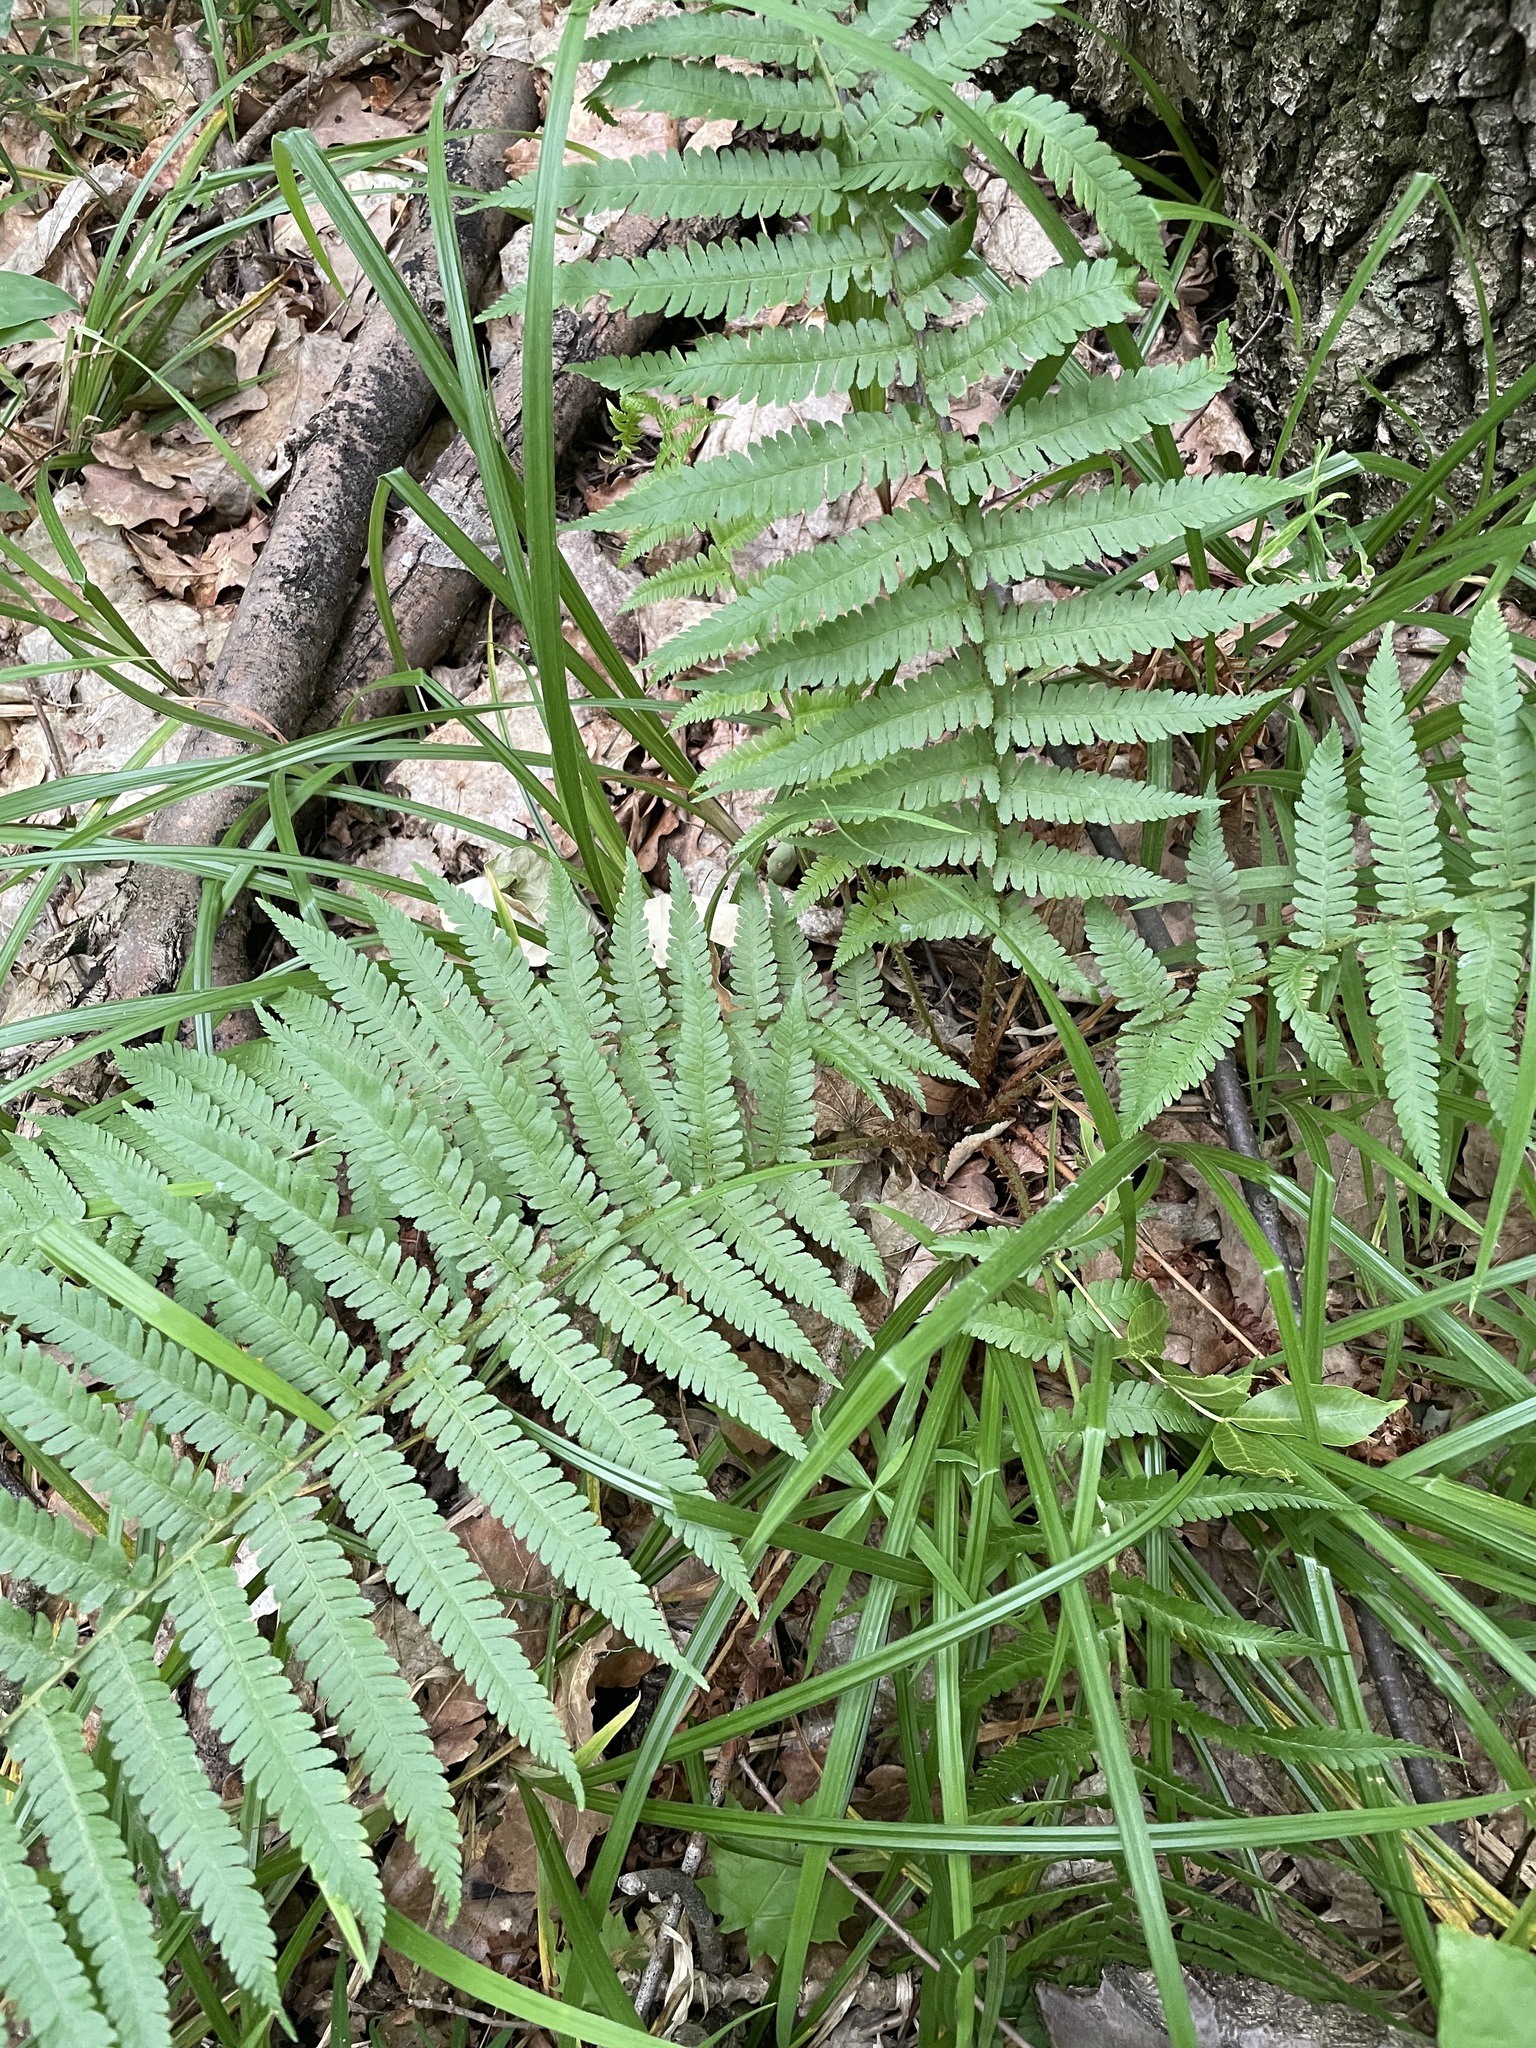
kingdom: Plantae
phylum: Tracheophyta
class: Polypodiopsida
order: Polypodiales
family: Dryopteridaceae
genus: Dryopteris
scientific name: Dryopteris filix-mas
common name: Male fern
